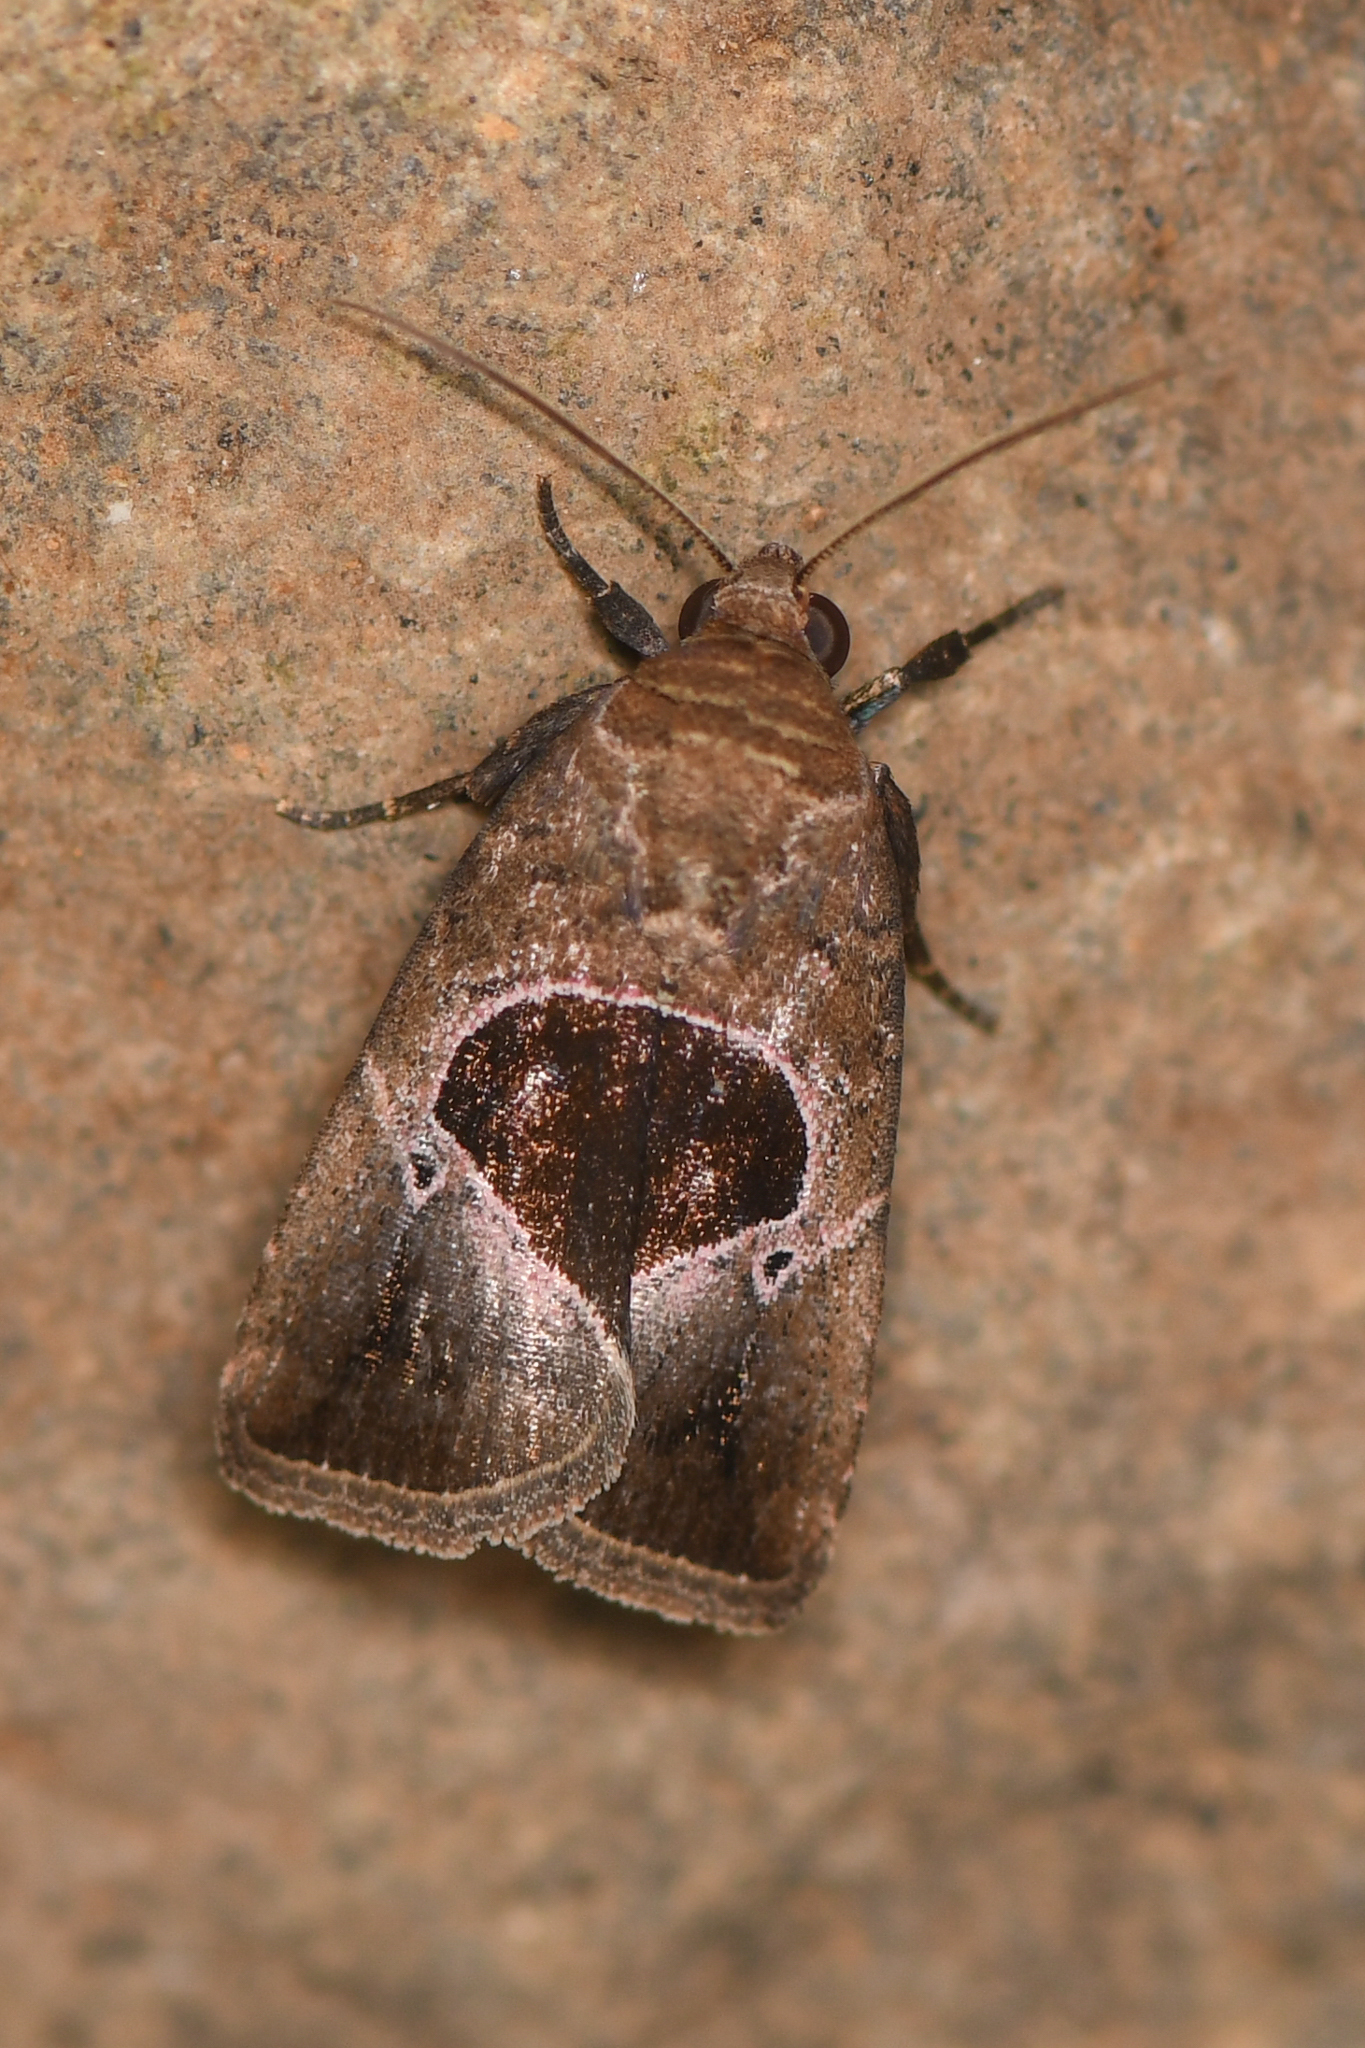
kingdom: Animalia
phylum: Arthropoda
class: Insecta
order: Lepidoptera
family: Noctuidae
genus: Elaphria
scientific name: Elaphria deltoides
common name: Cutworm moth
